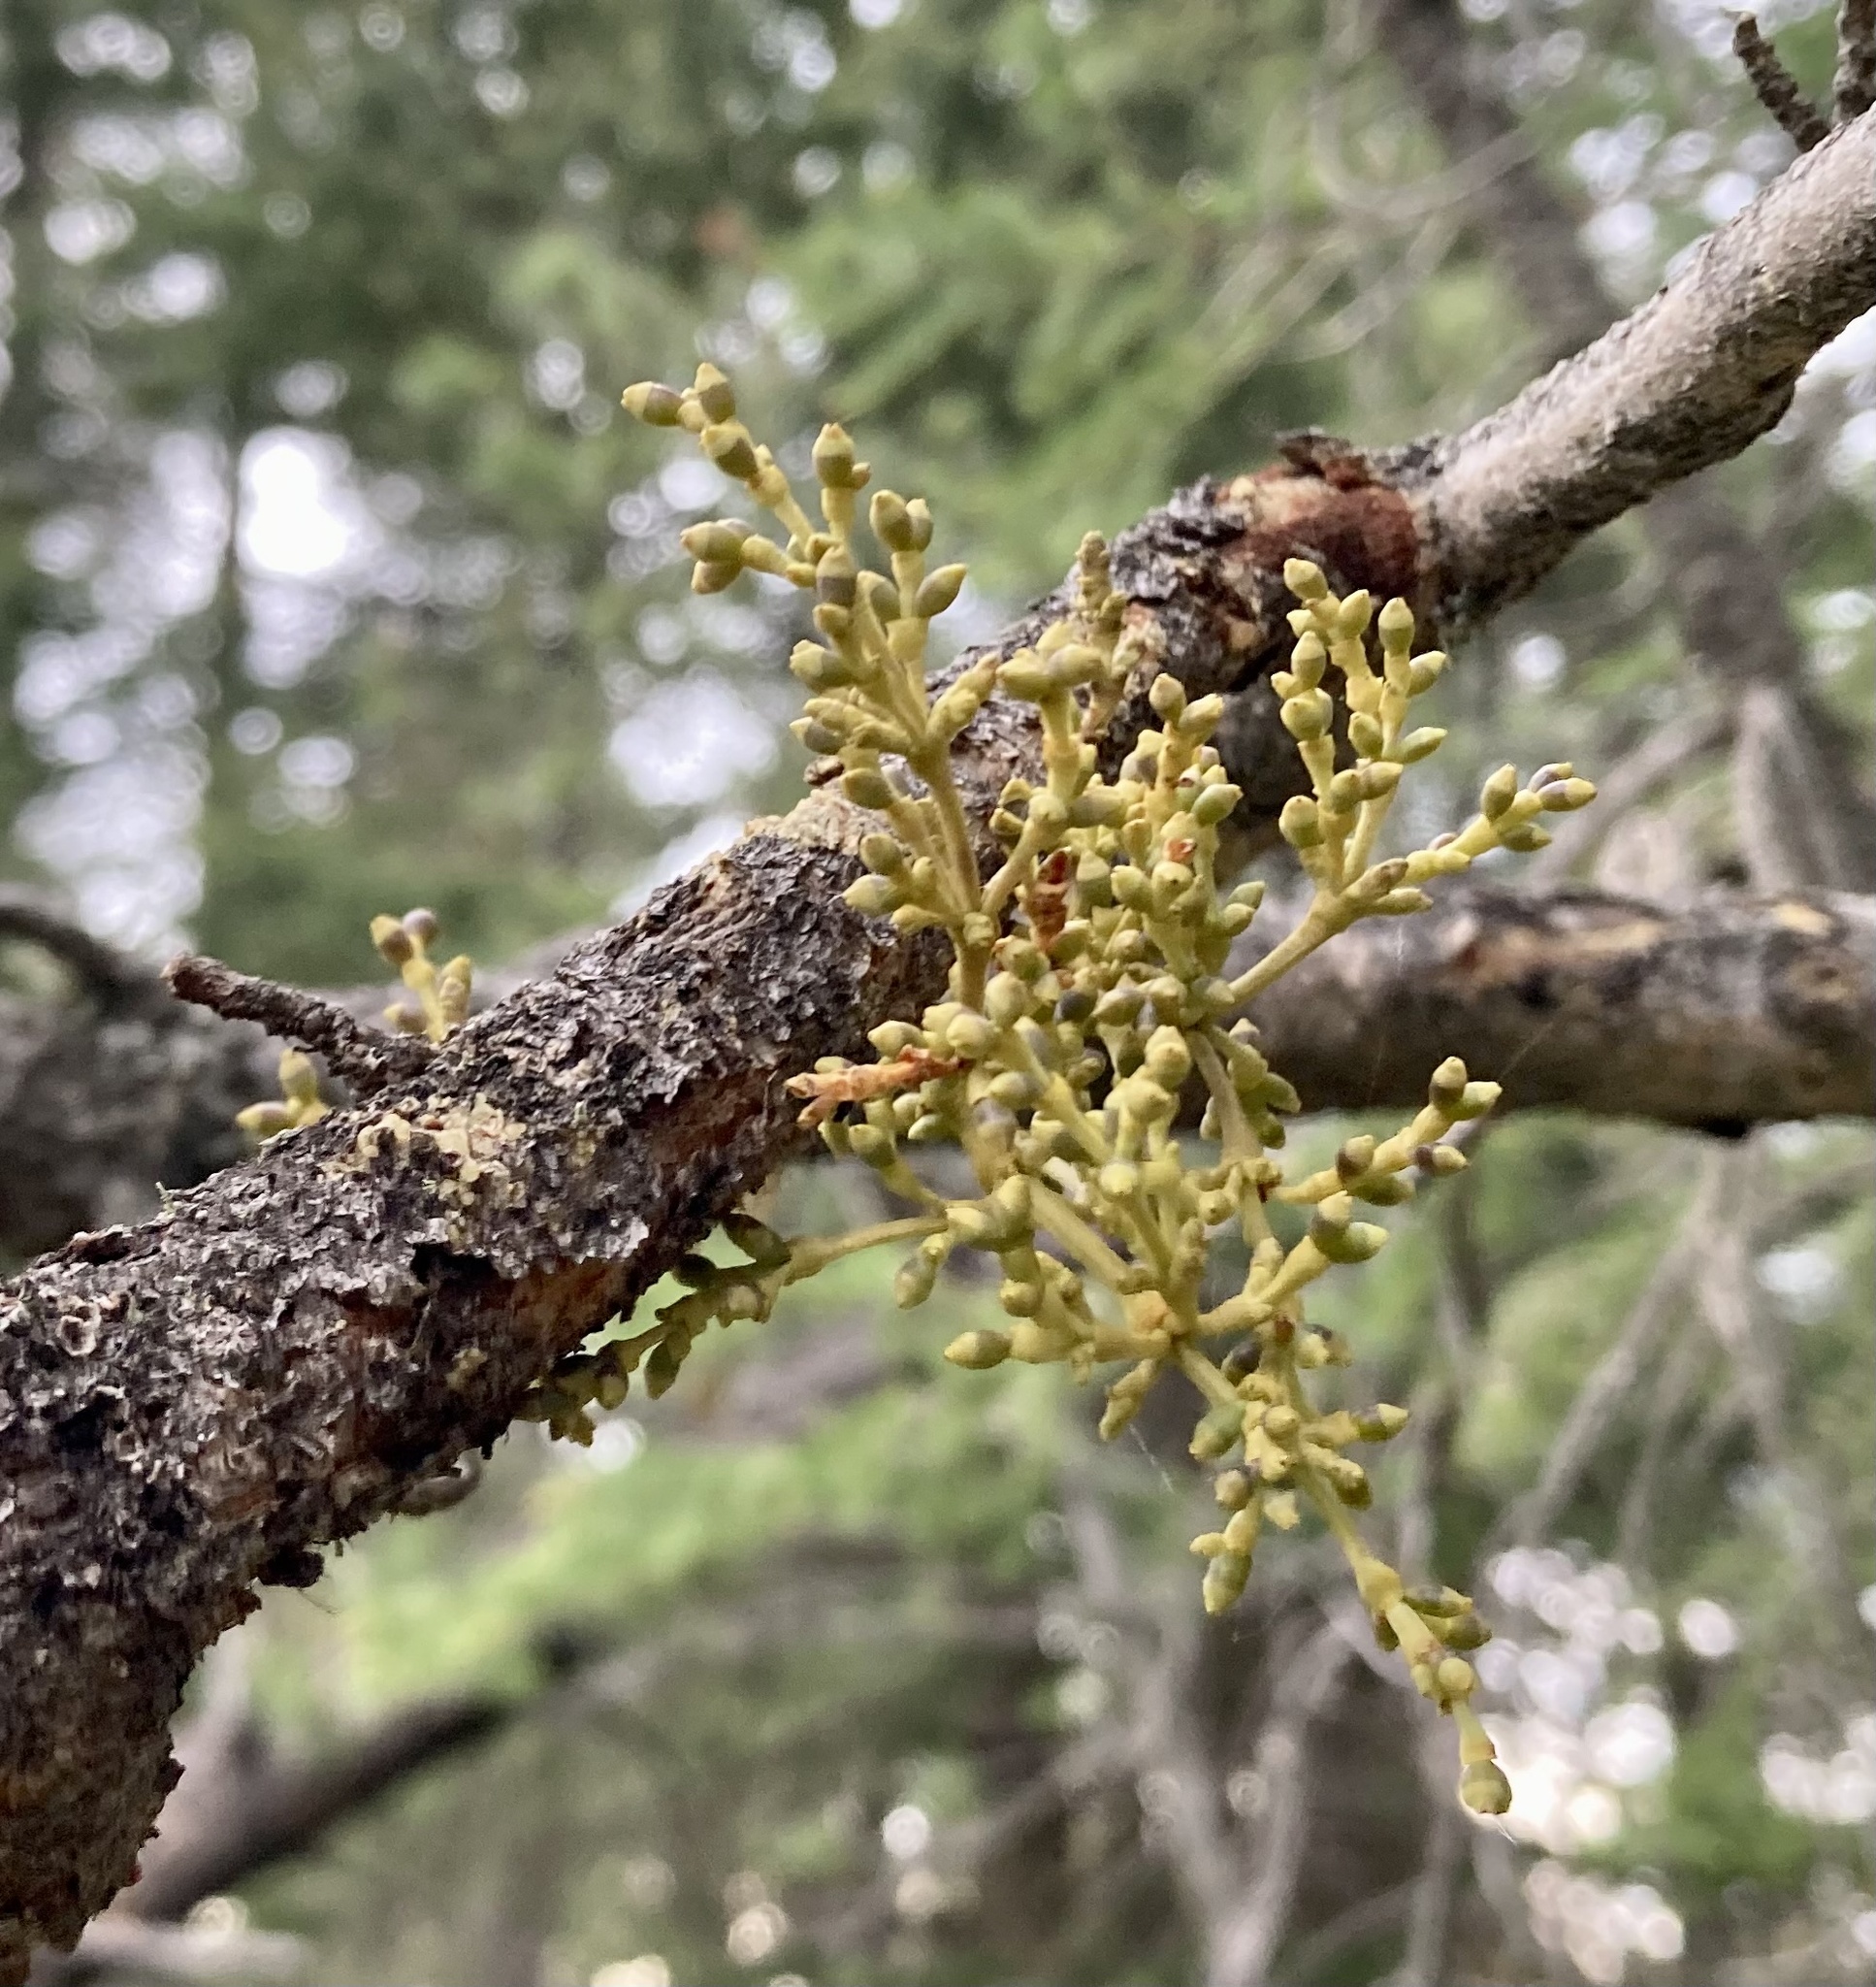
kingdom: Plantae
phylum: Tracheophyta
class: Magnoliopsida
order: Santalales
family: Viscaceae
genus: Arceuthobium
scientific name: Arceuthobium americanum
